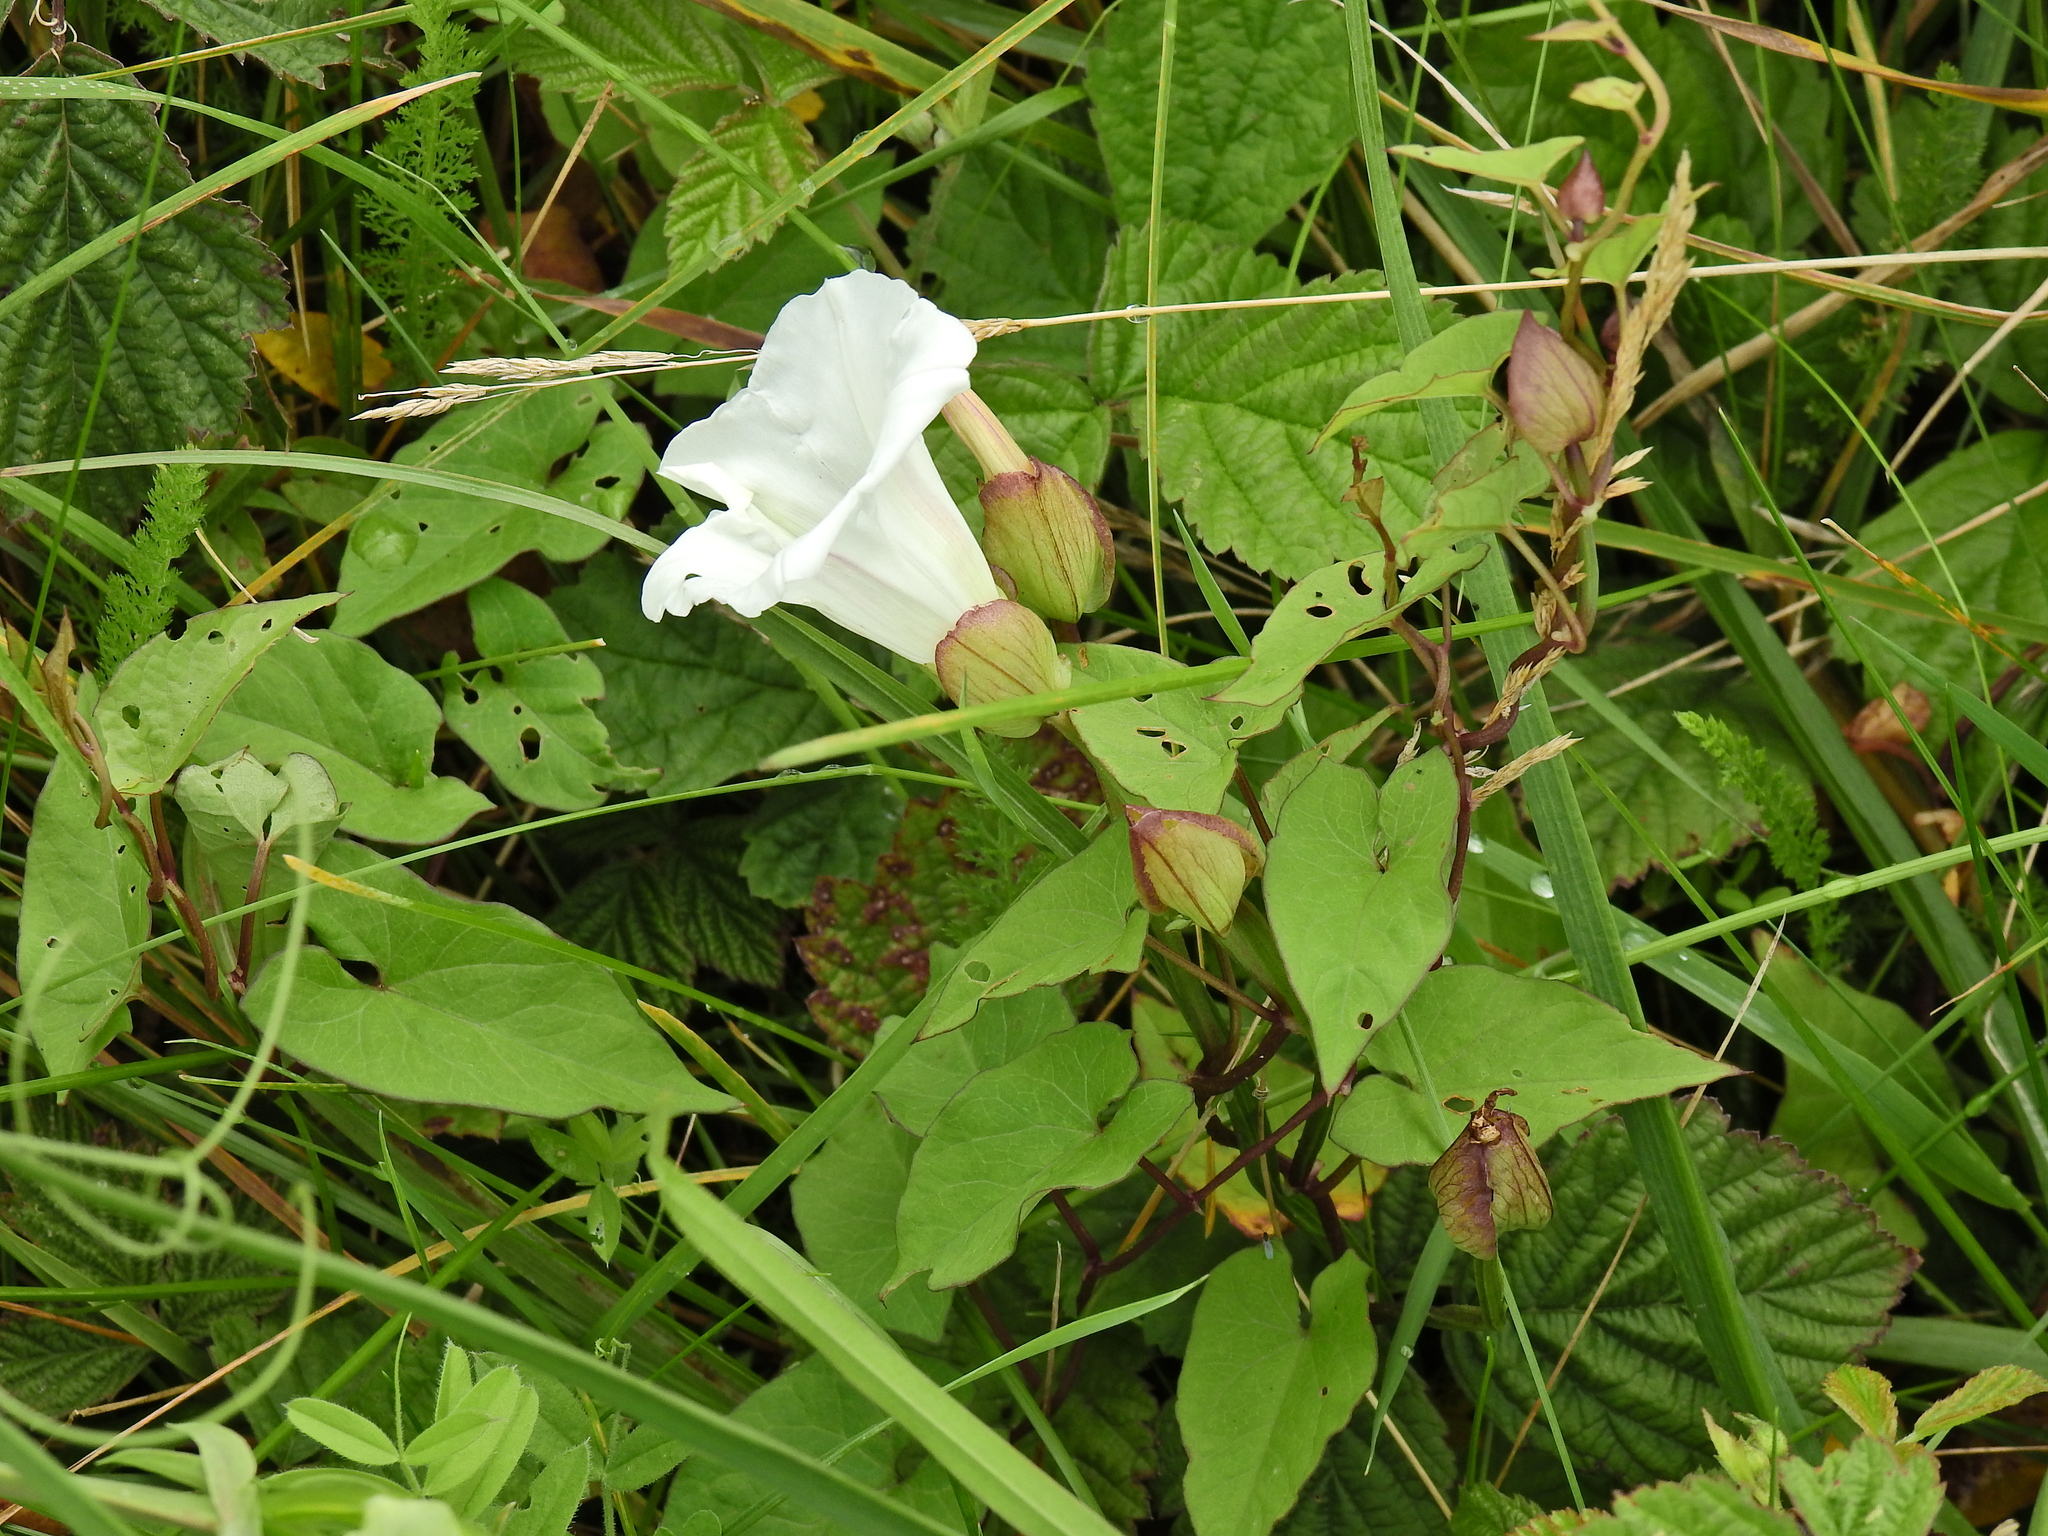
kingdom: Plantae
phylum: Tracheophyta
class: Magnoliopsida
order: Solanales
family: Convolvulaceae
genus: Calystegia
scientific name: Calystegia silvatica
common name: Large bindweed
